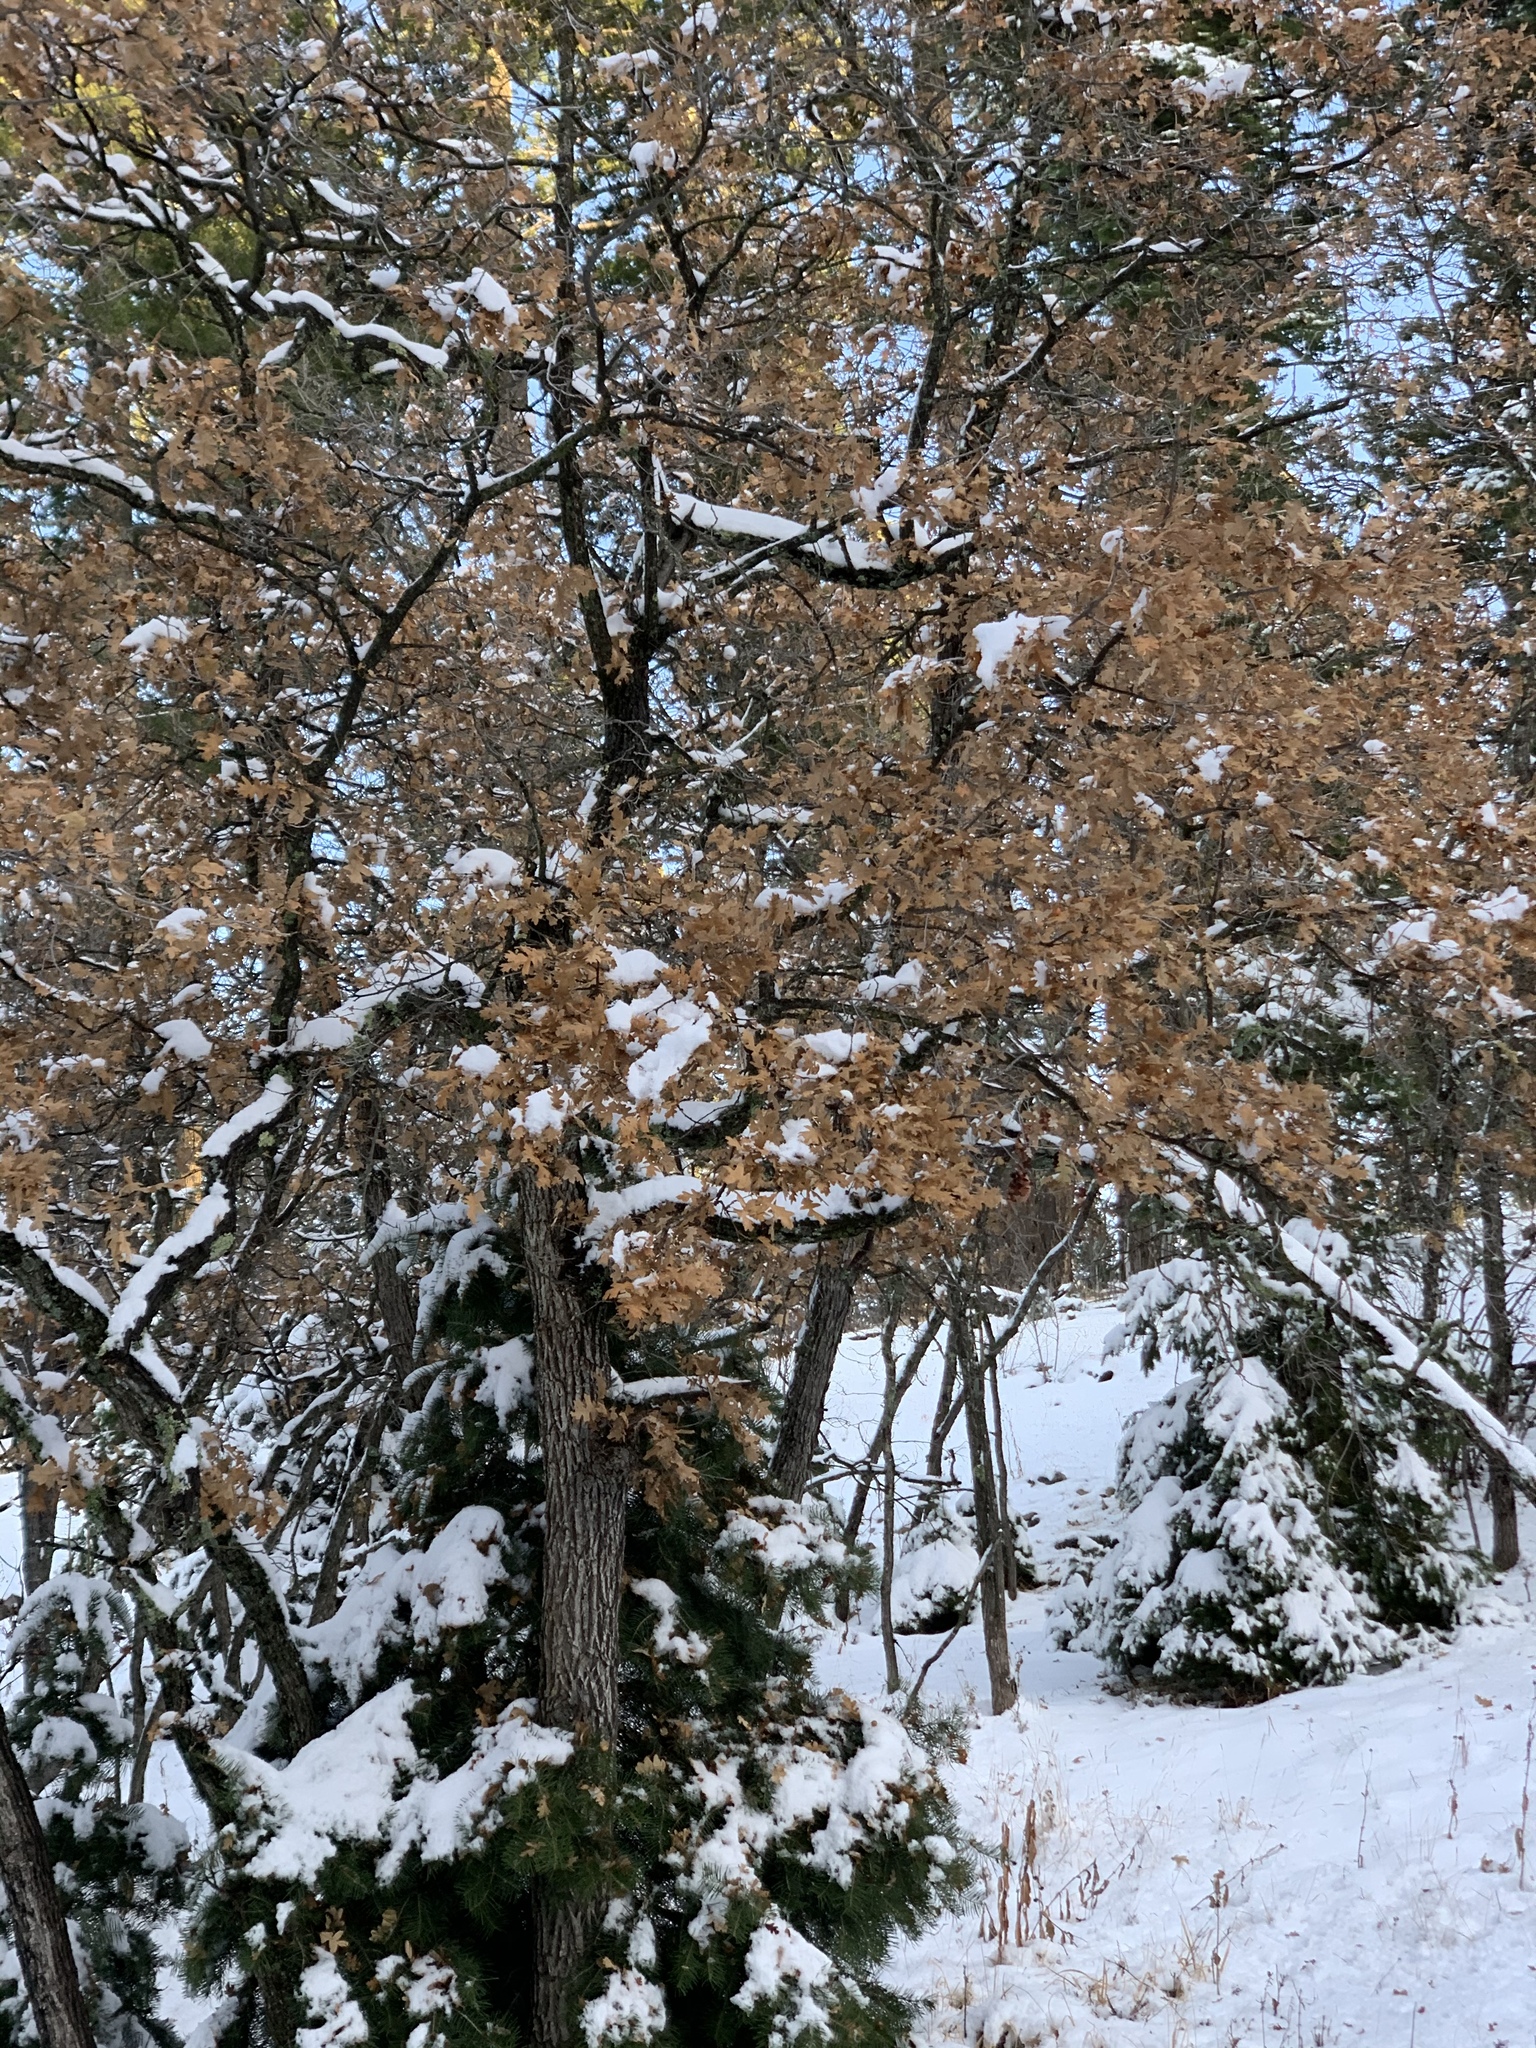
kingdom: Plantae
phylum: Tracheophyta
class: Magnoliopsida
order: Fagales
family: Fagaceae
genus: Quercus
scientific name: Quercus gambelii
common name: Gambel oak
